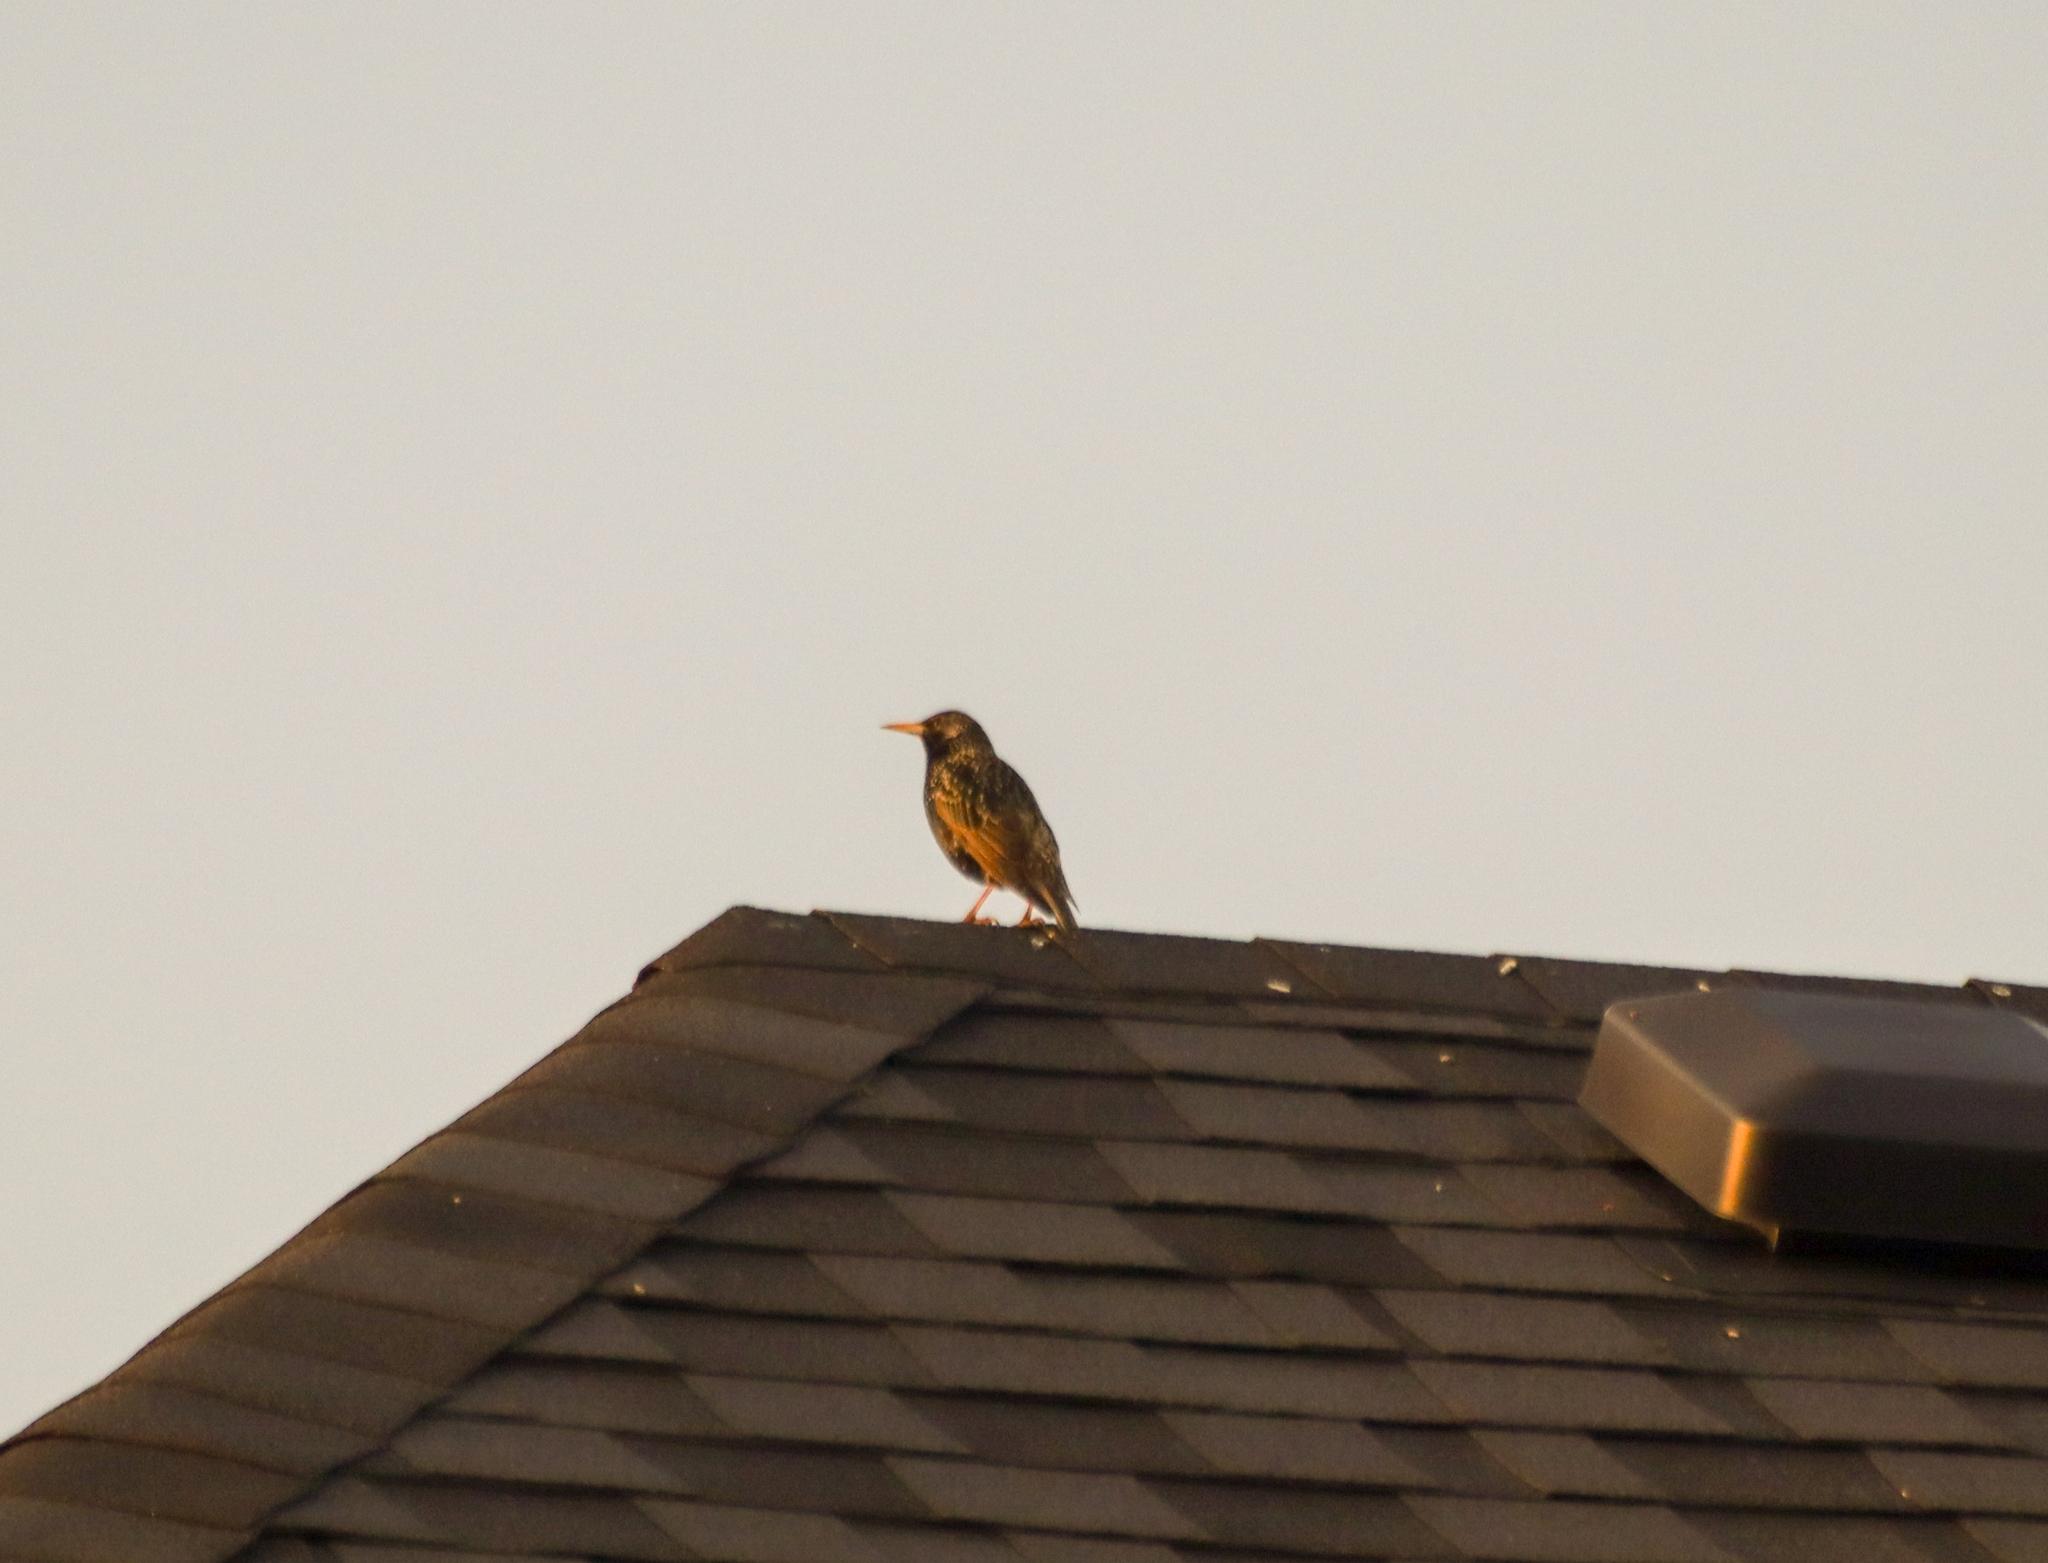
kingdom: Animalia
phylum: Chordata
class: Aves
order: Passeriformes
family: Sturnidae
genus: Sturnus
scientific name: Sturnus vulgaris
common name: Common starling
